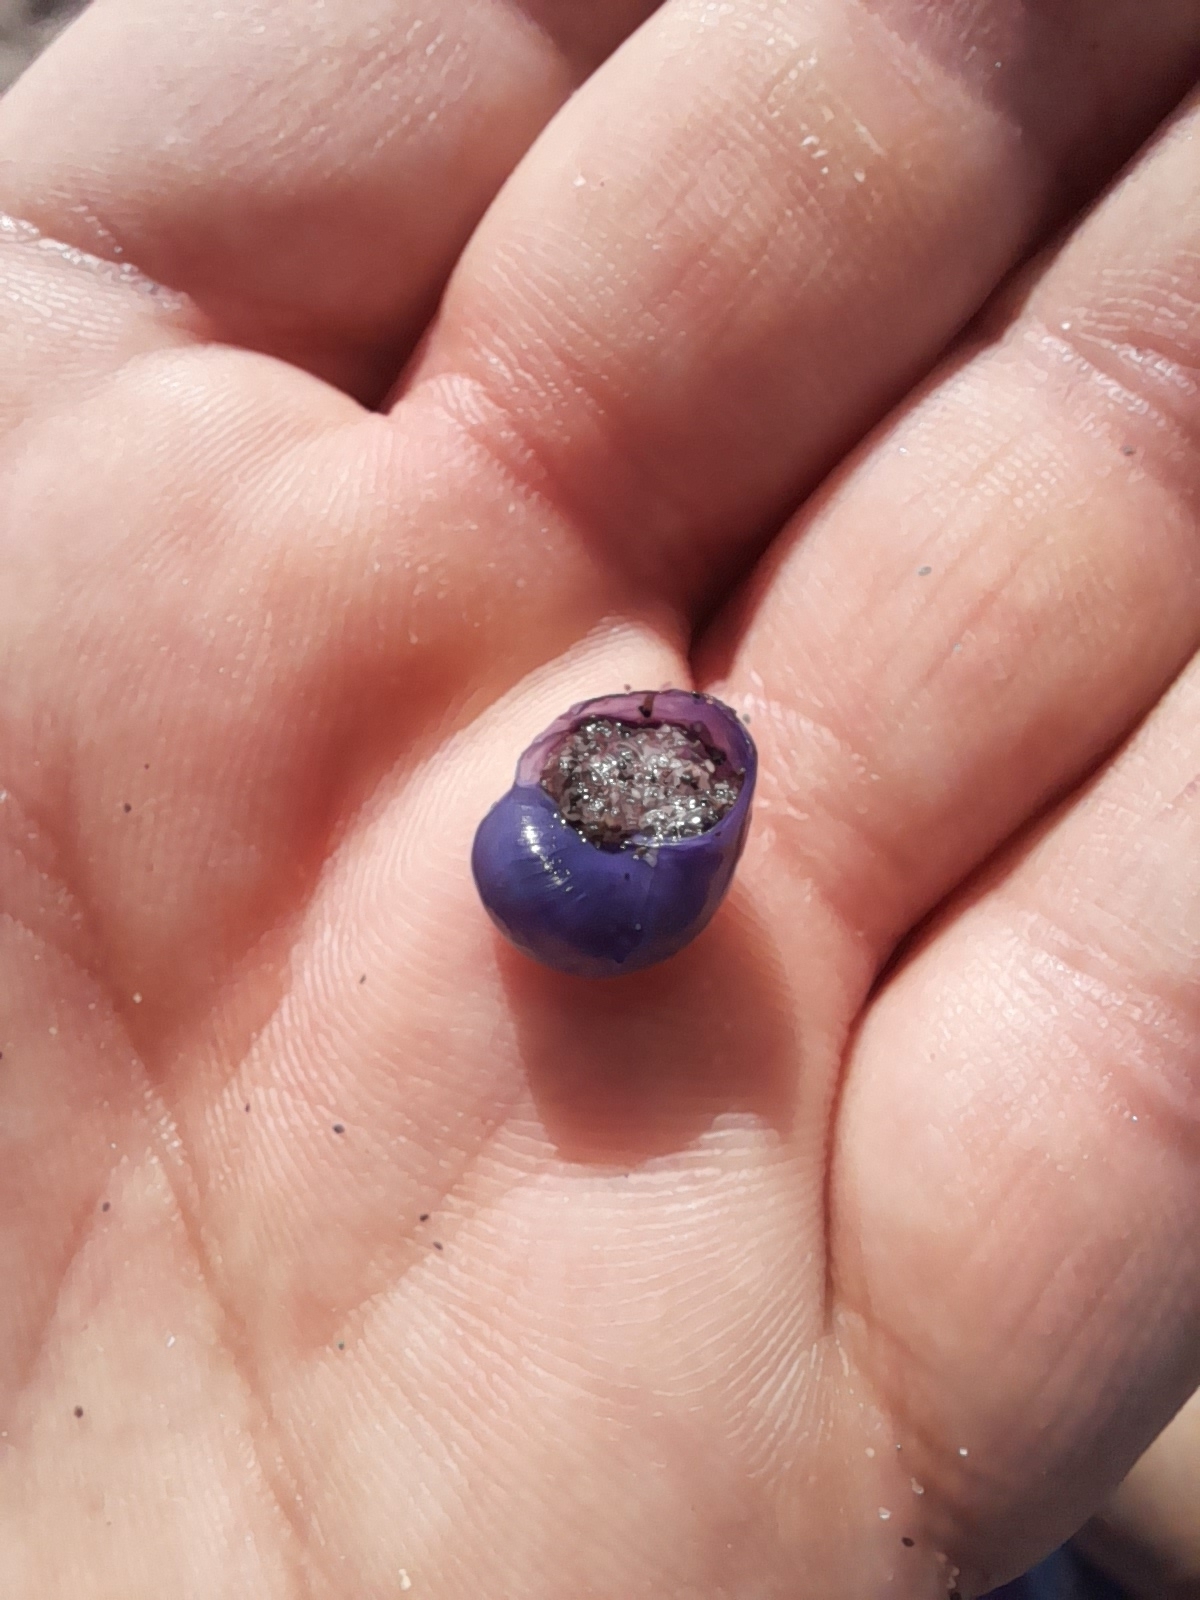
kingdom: Animalia
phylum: Mollusca
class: Gastropoda
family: Epitoniidae
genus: Janthina
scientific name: Janthina umbilicata
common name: Elongate janthina
